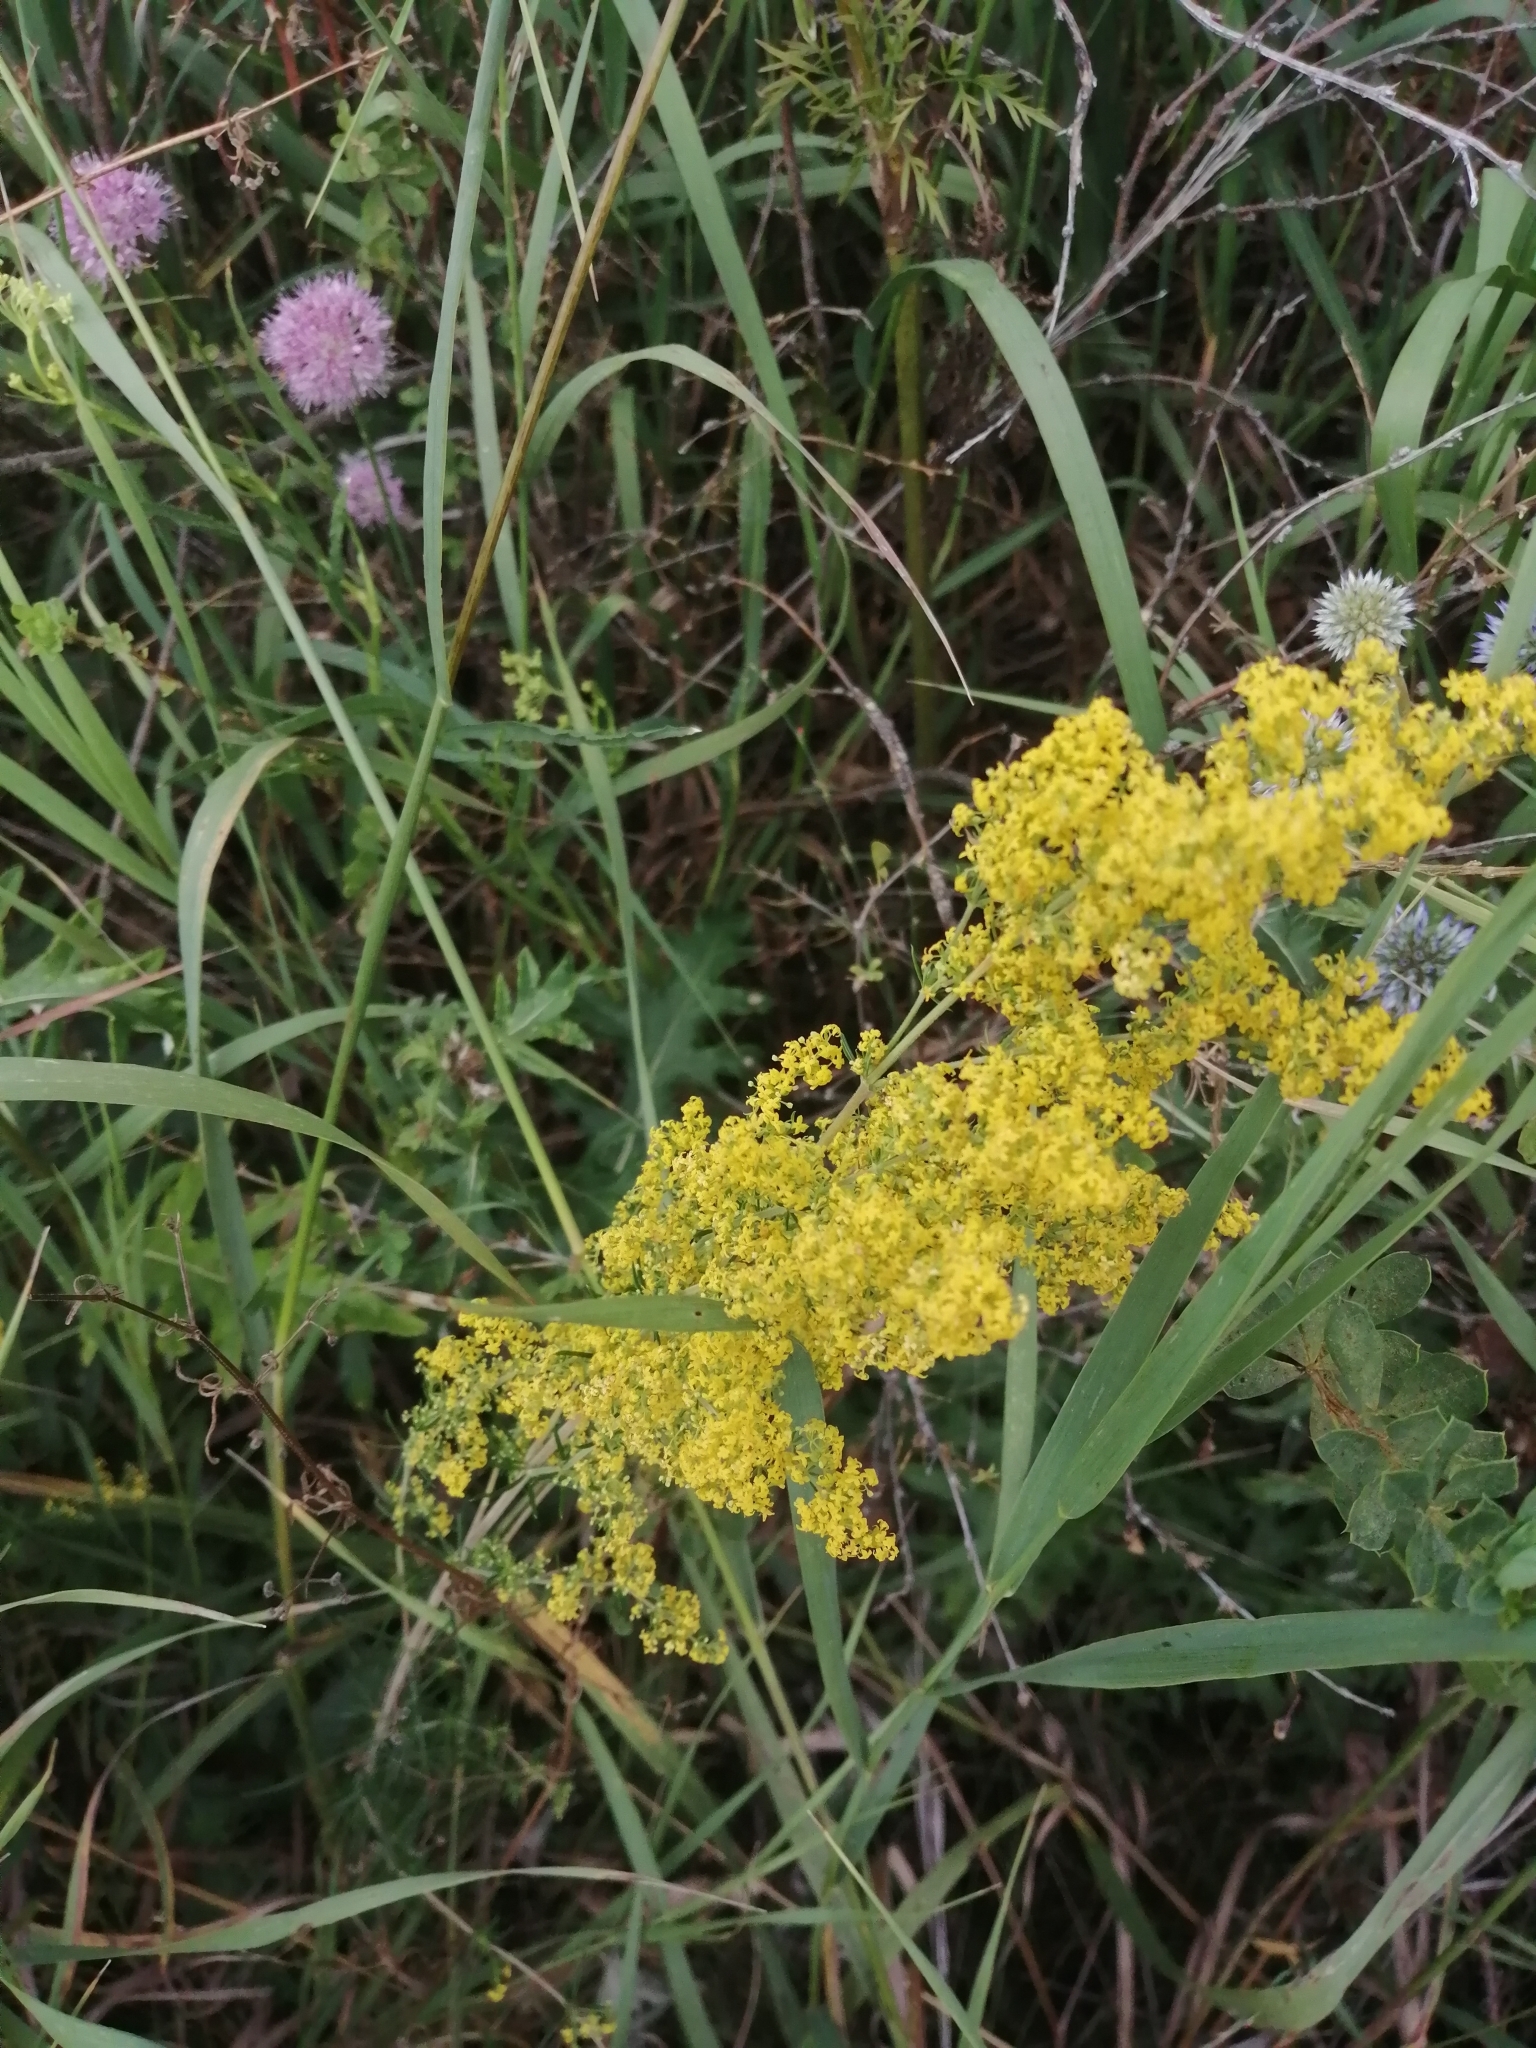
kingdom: Plantae
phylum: Tracheophyta
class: Magnoliopsida
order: Gentianales
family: Rubiaceae
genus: Galium
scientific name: Galium verum
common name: Lady's bedstraw
